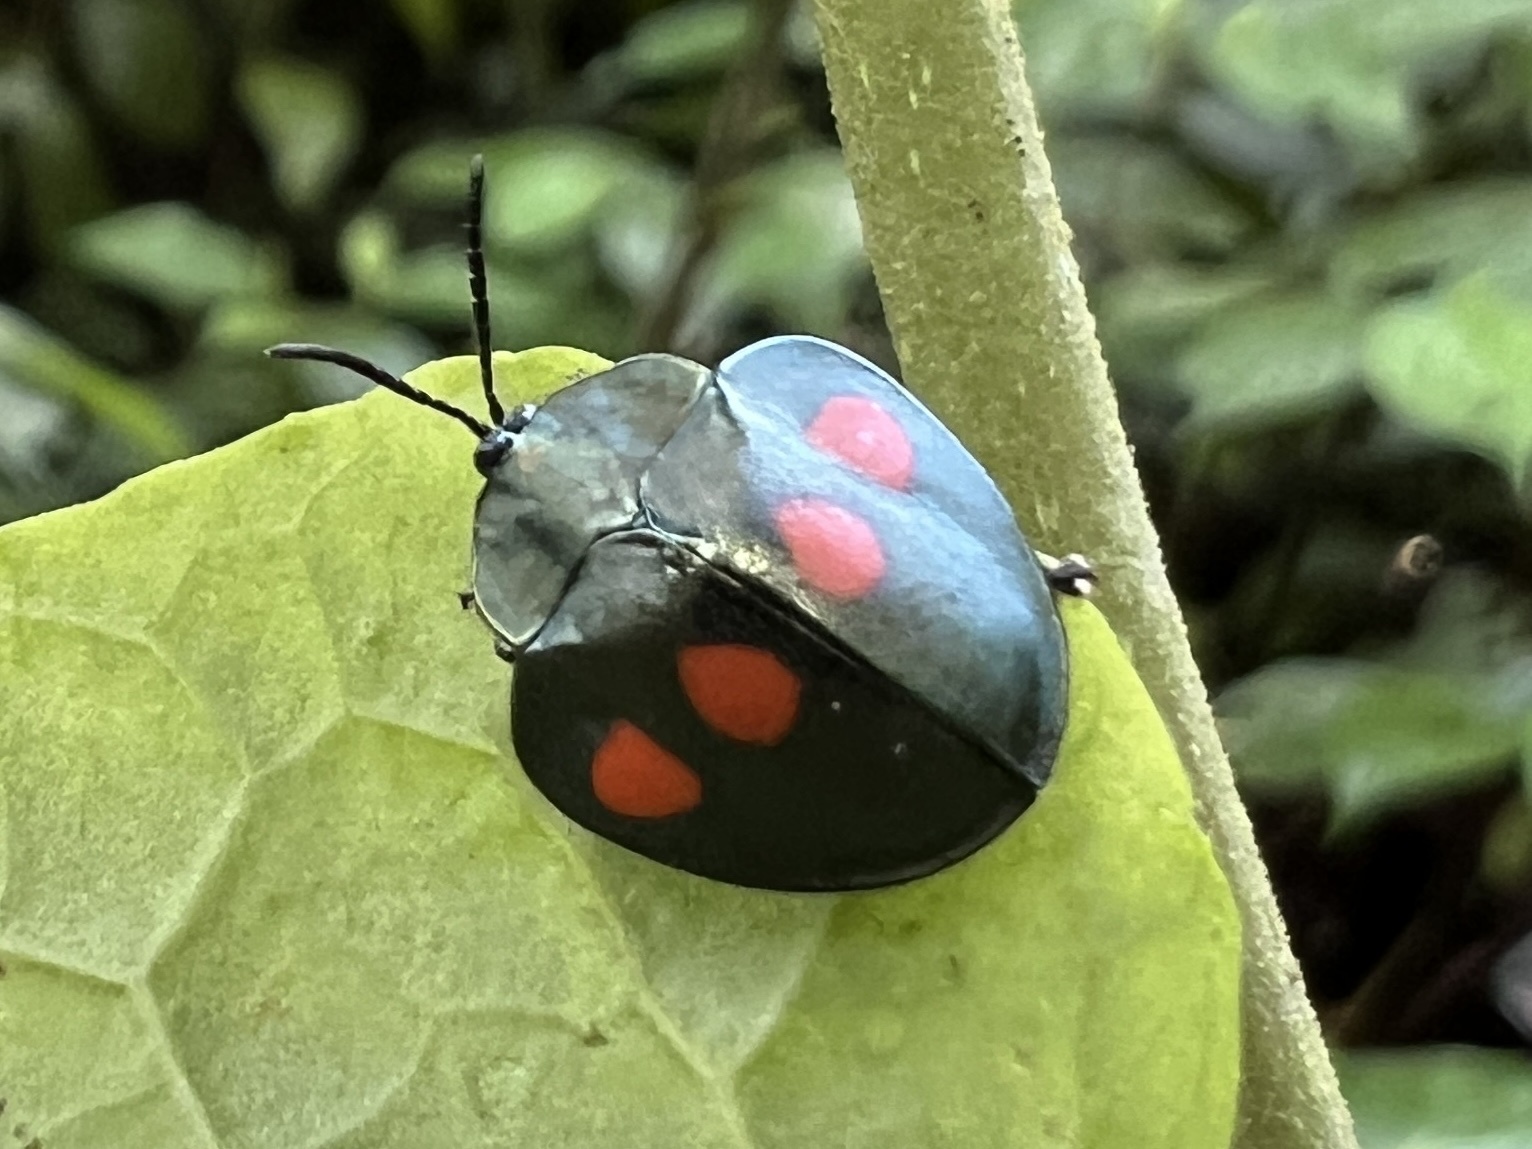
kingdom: Animalia
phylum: Arthropoda
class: Insecta
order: Coleoptera
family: Chrysomelidae
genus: Stolas
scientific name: Stolas lebasii
